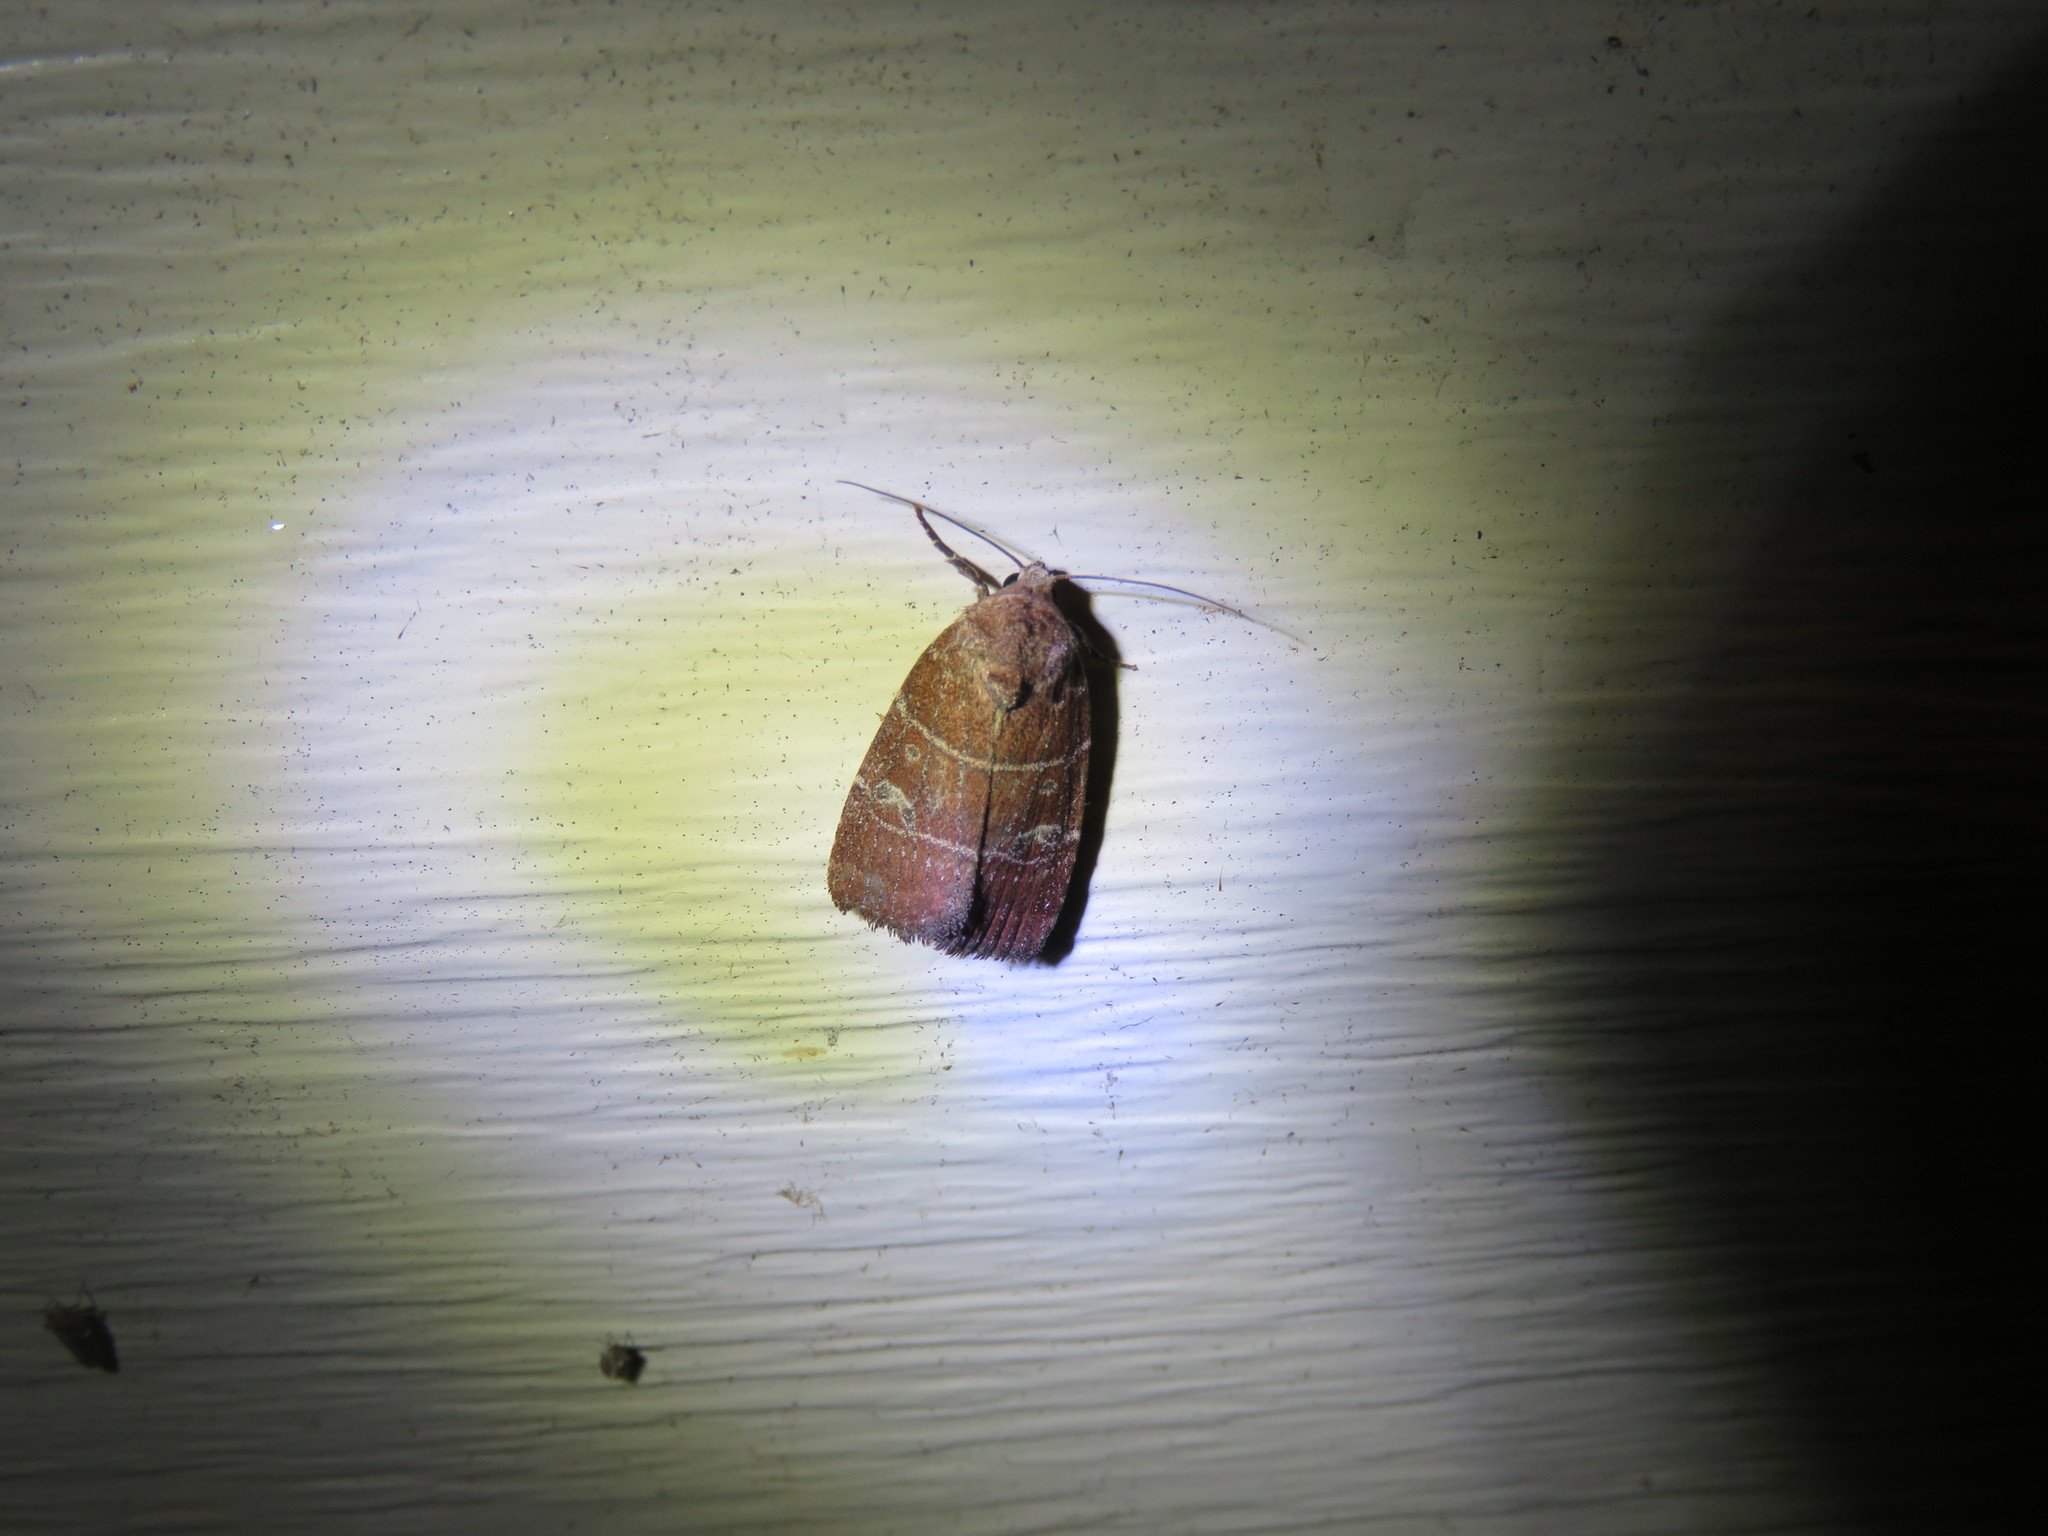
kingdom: Animalia
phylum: Arthropoda
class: Insecta
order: Lepidoptera
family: Noctuidae
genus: Elaphria
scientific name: Elaphria grata
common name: Grateful midget moth
